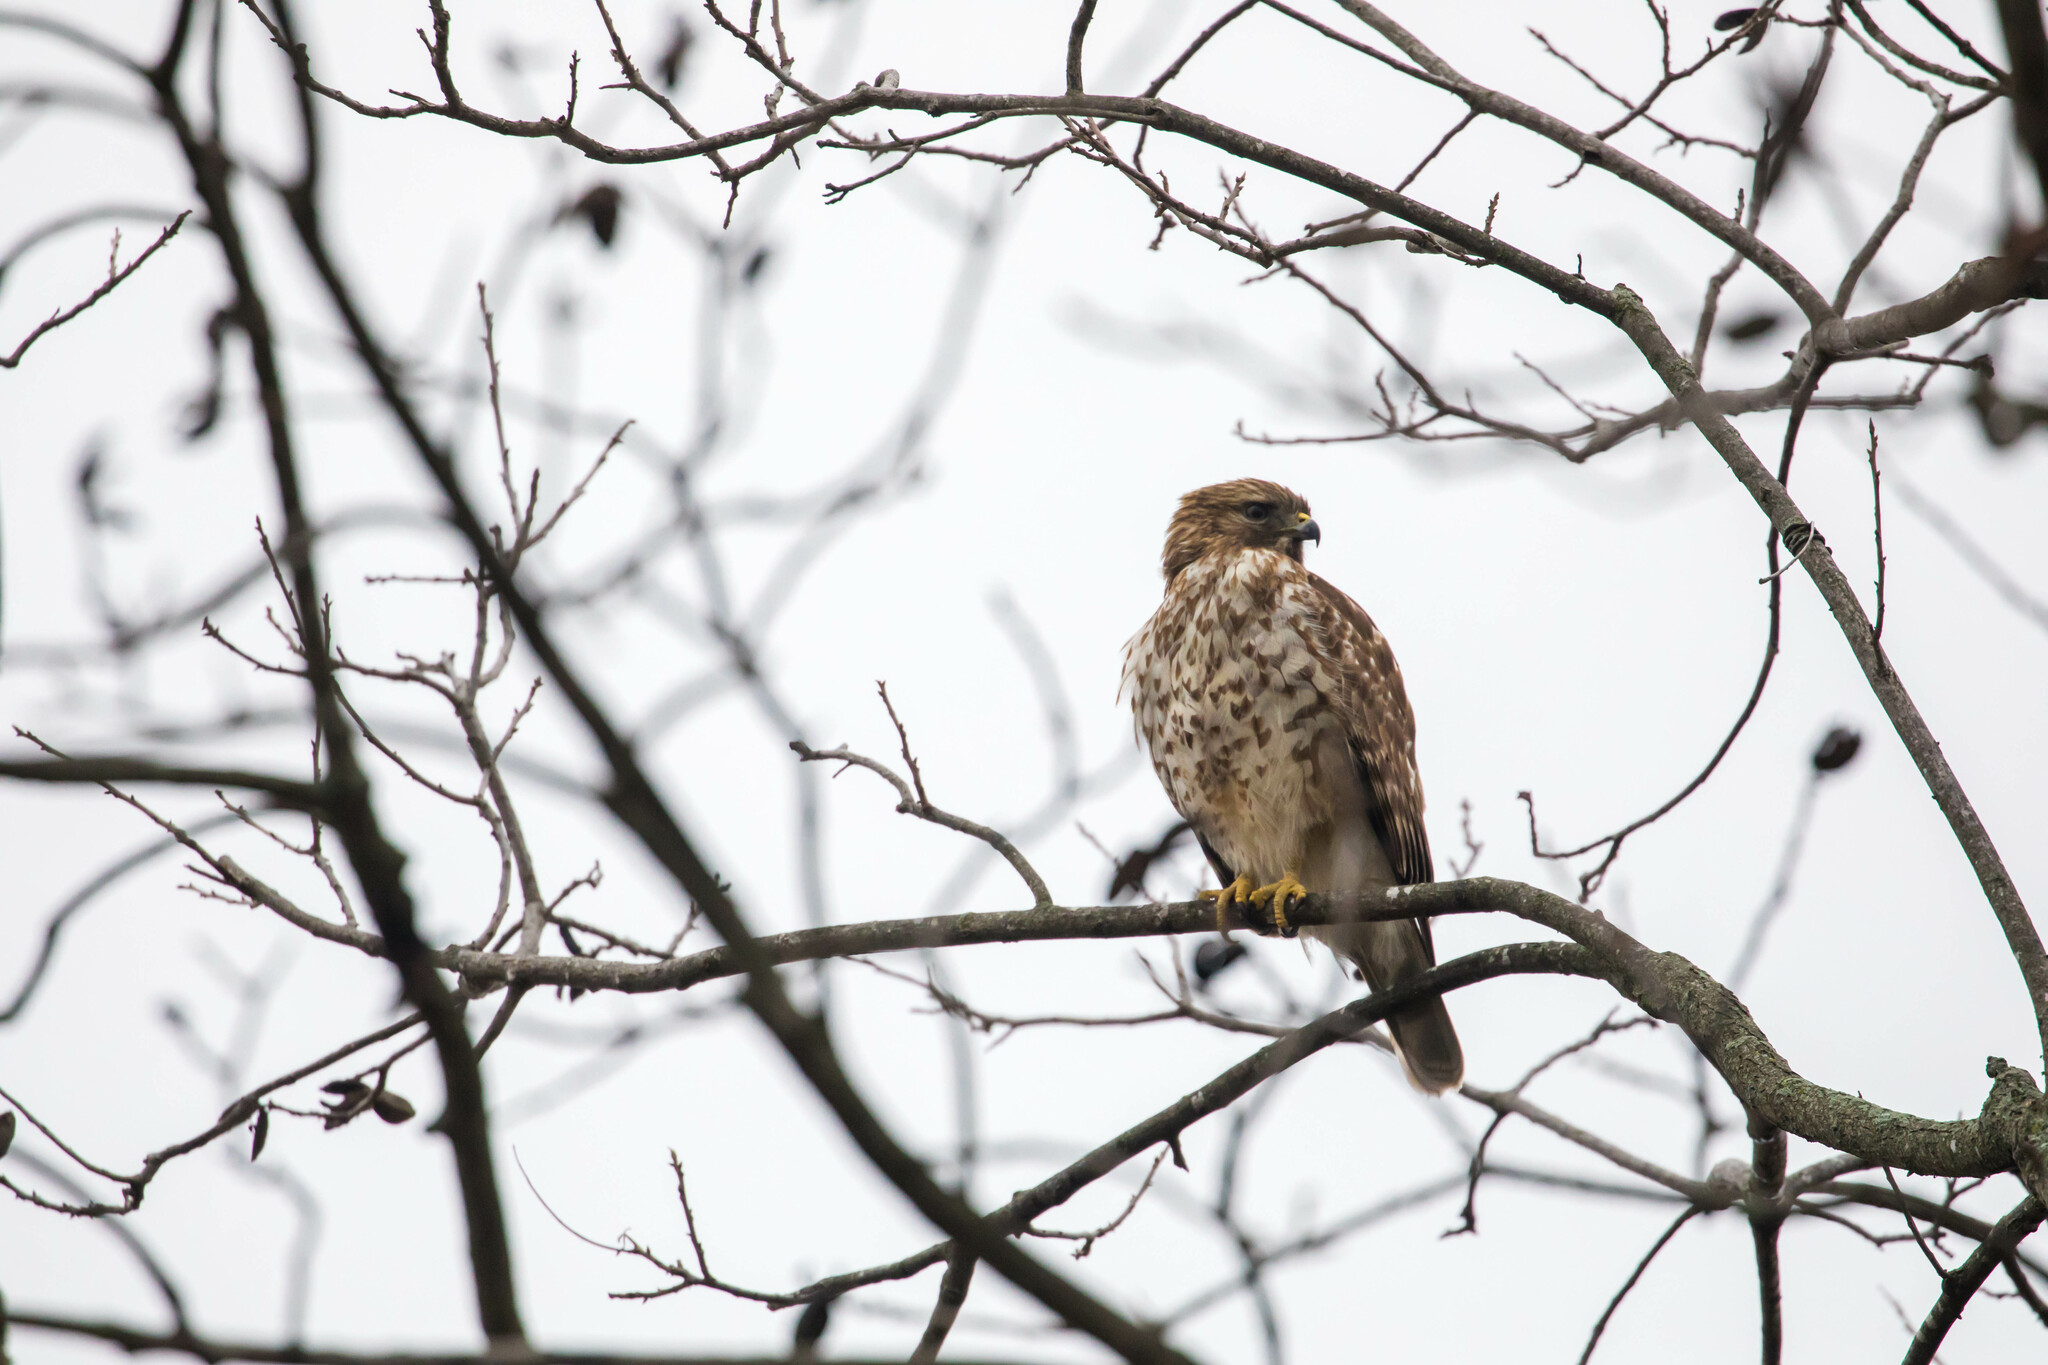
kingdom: Animalia
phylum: Chordata
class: Aves
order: Accipitriformes
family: Accipitridae
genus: Buteo
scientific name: Buteo lineatus
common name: Red-shouldered hawk
